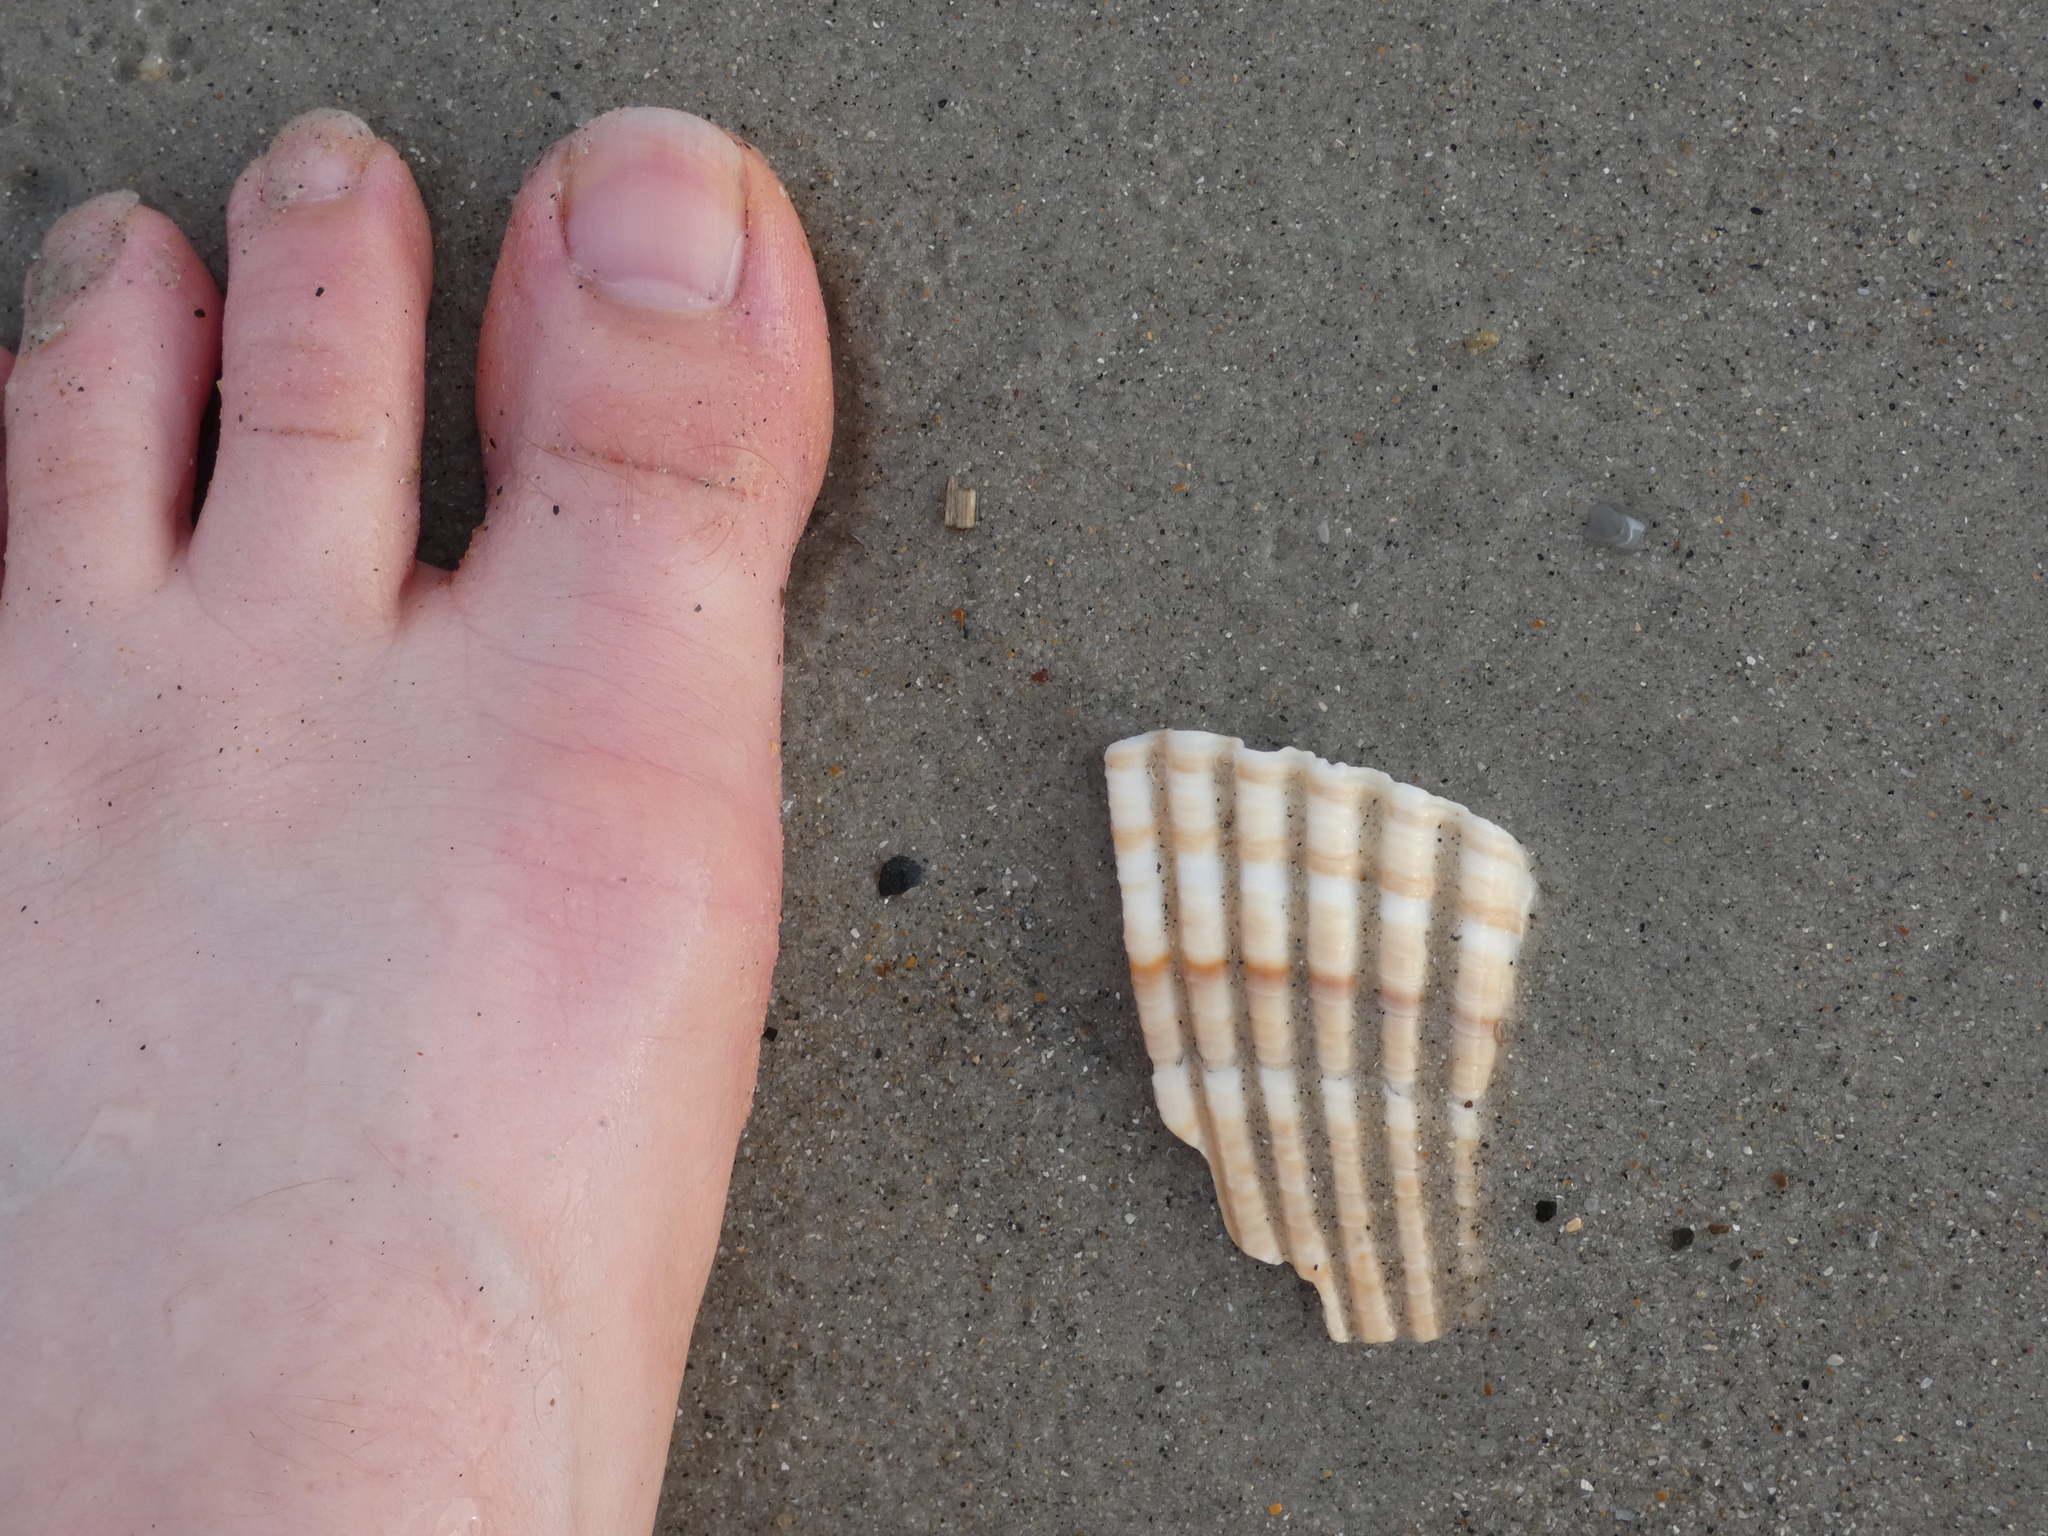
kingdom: Animalia
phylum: Mollusca
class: Bivalvia
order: Cardiida
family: Cardiidae
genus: Dinocardium
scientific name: Dinocardium robustum
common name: Atlantic giant cockle
